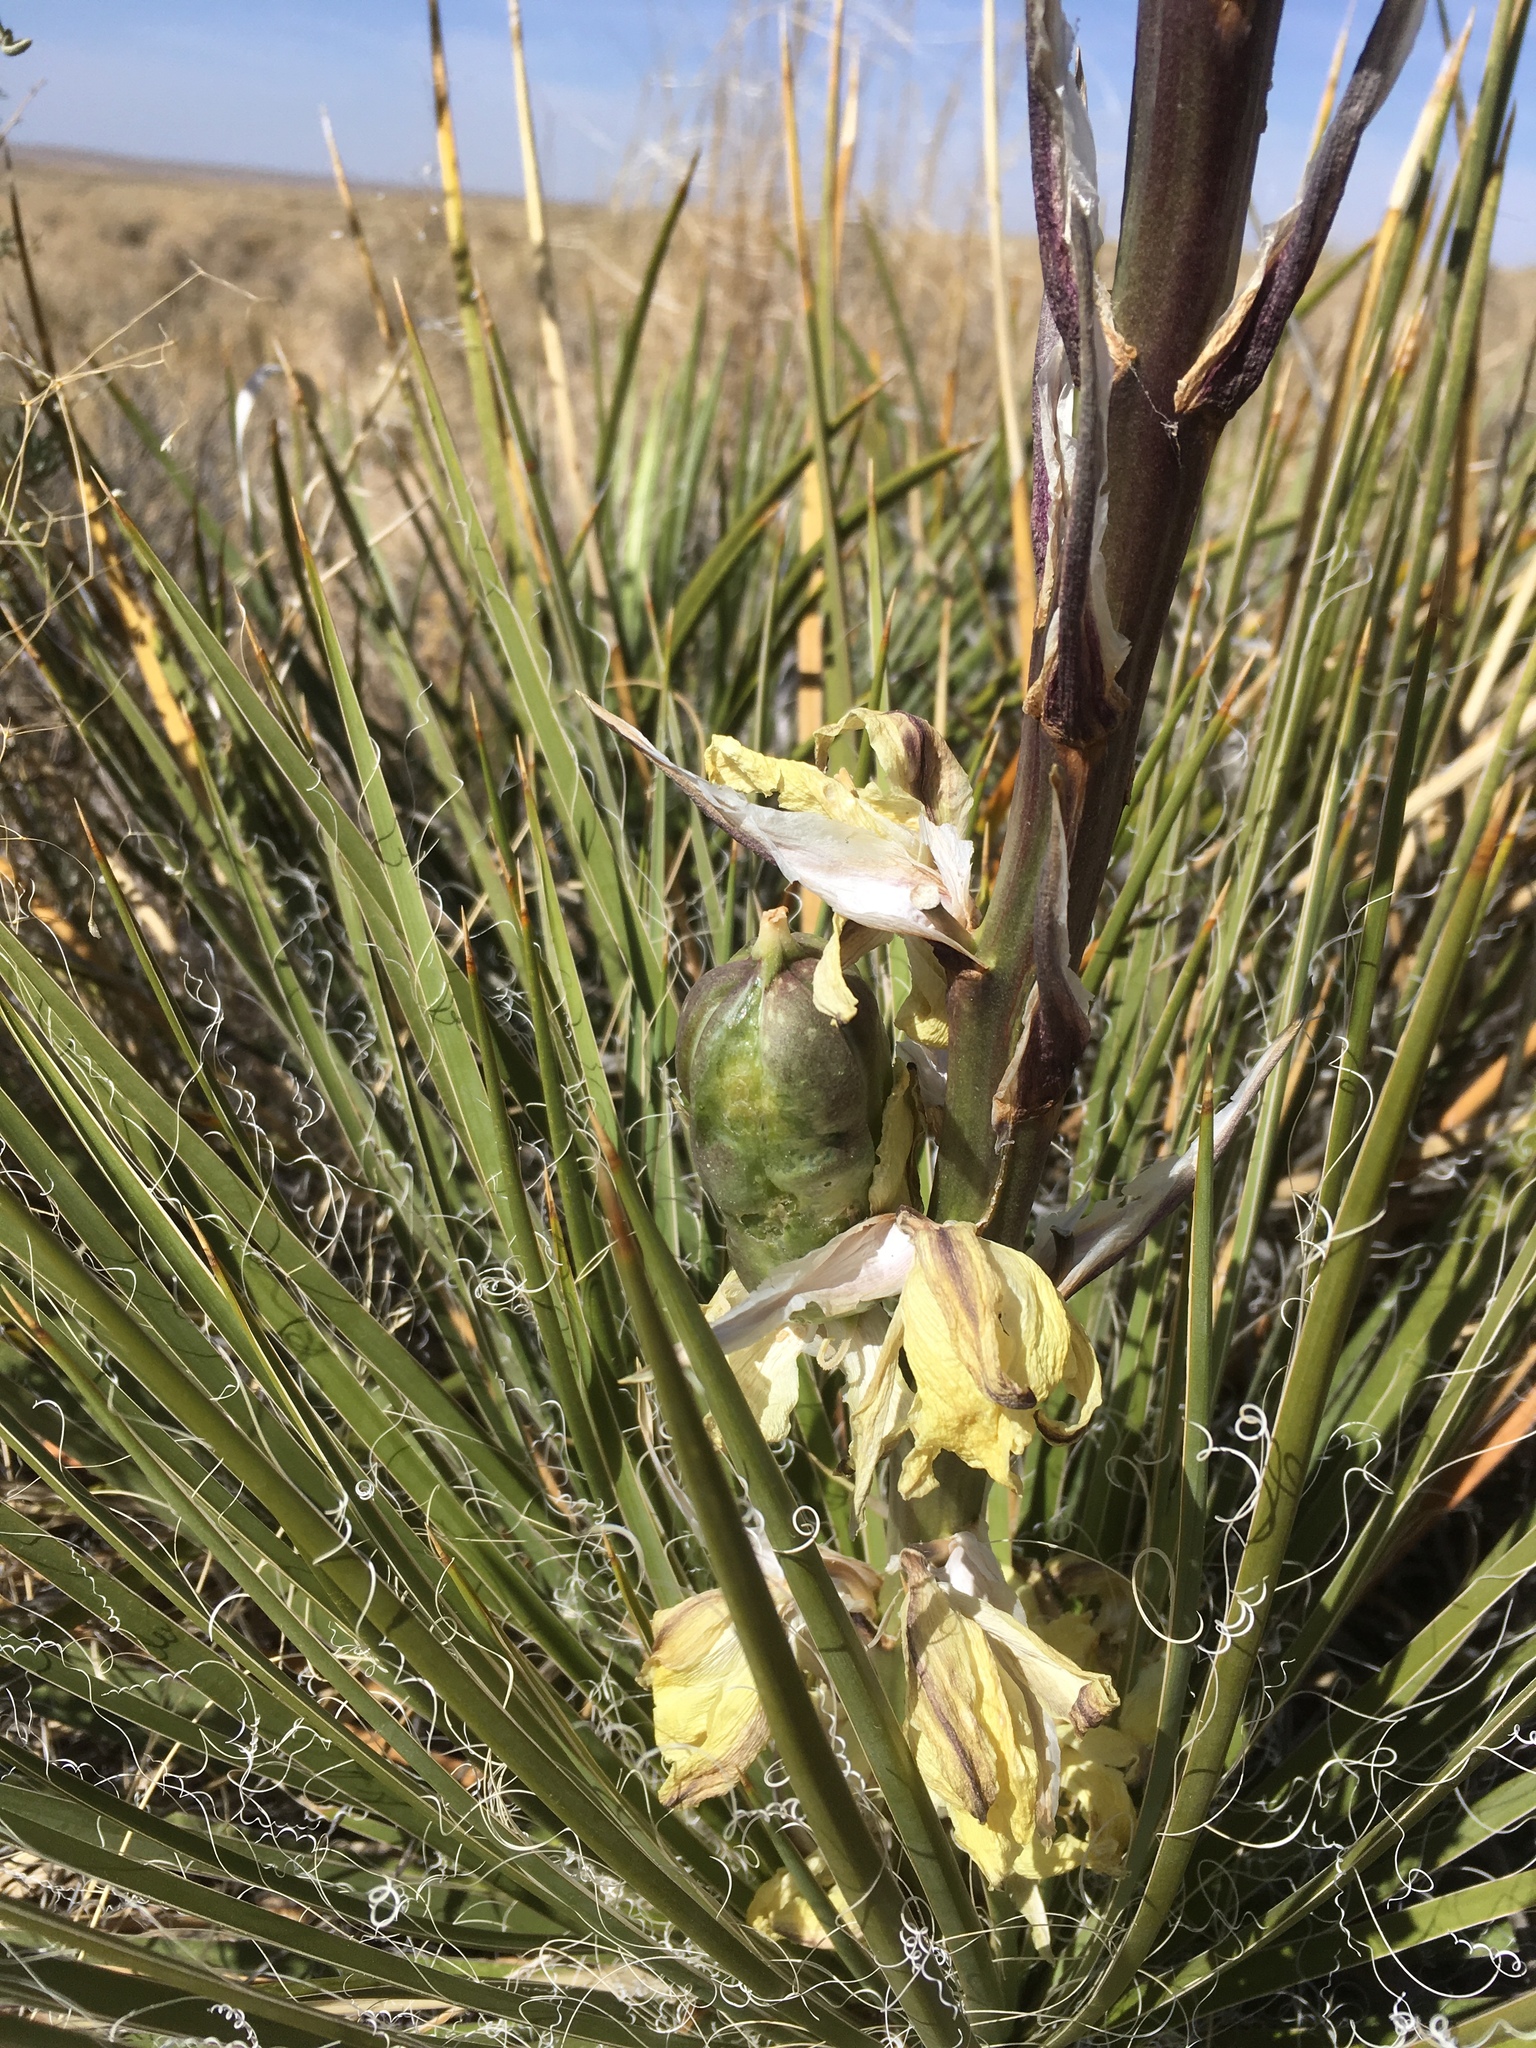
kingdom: Plantae
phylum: Tracheophyta
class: Liliopsida
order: Asparagales
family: Asparagaceae
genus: Yucca
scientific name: Yucca baileyi
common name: Alpine yucca
